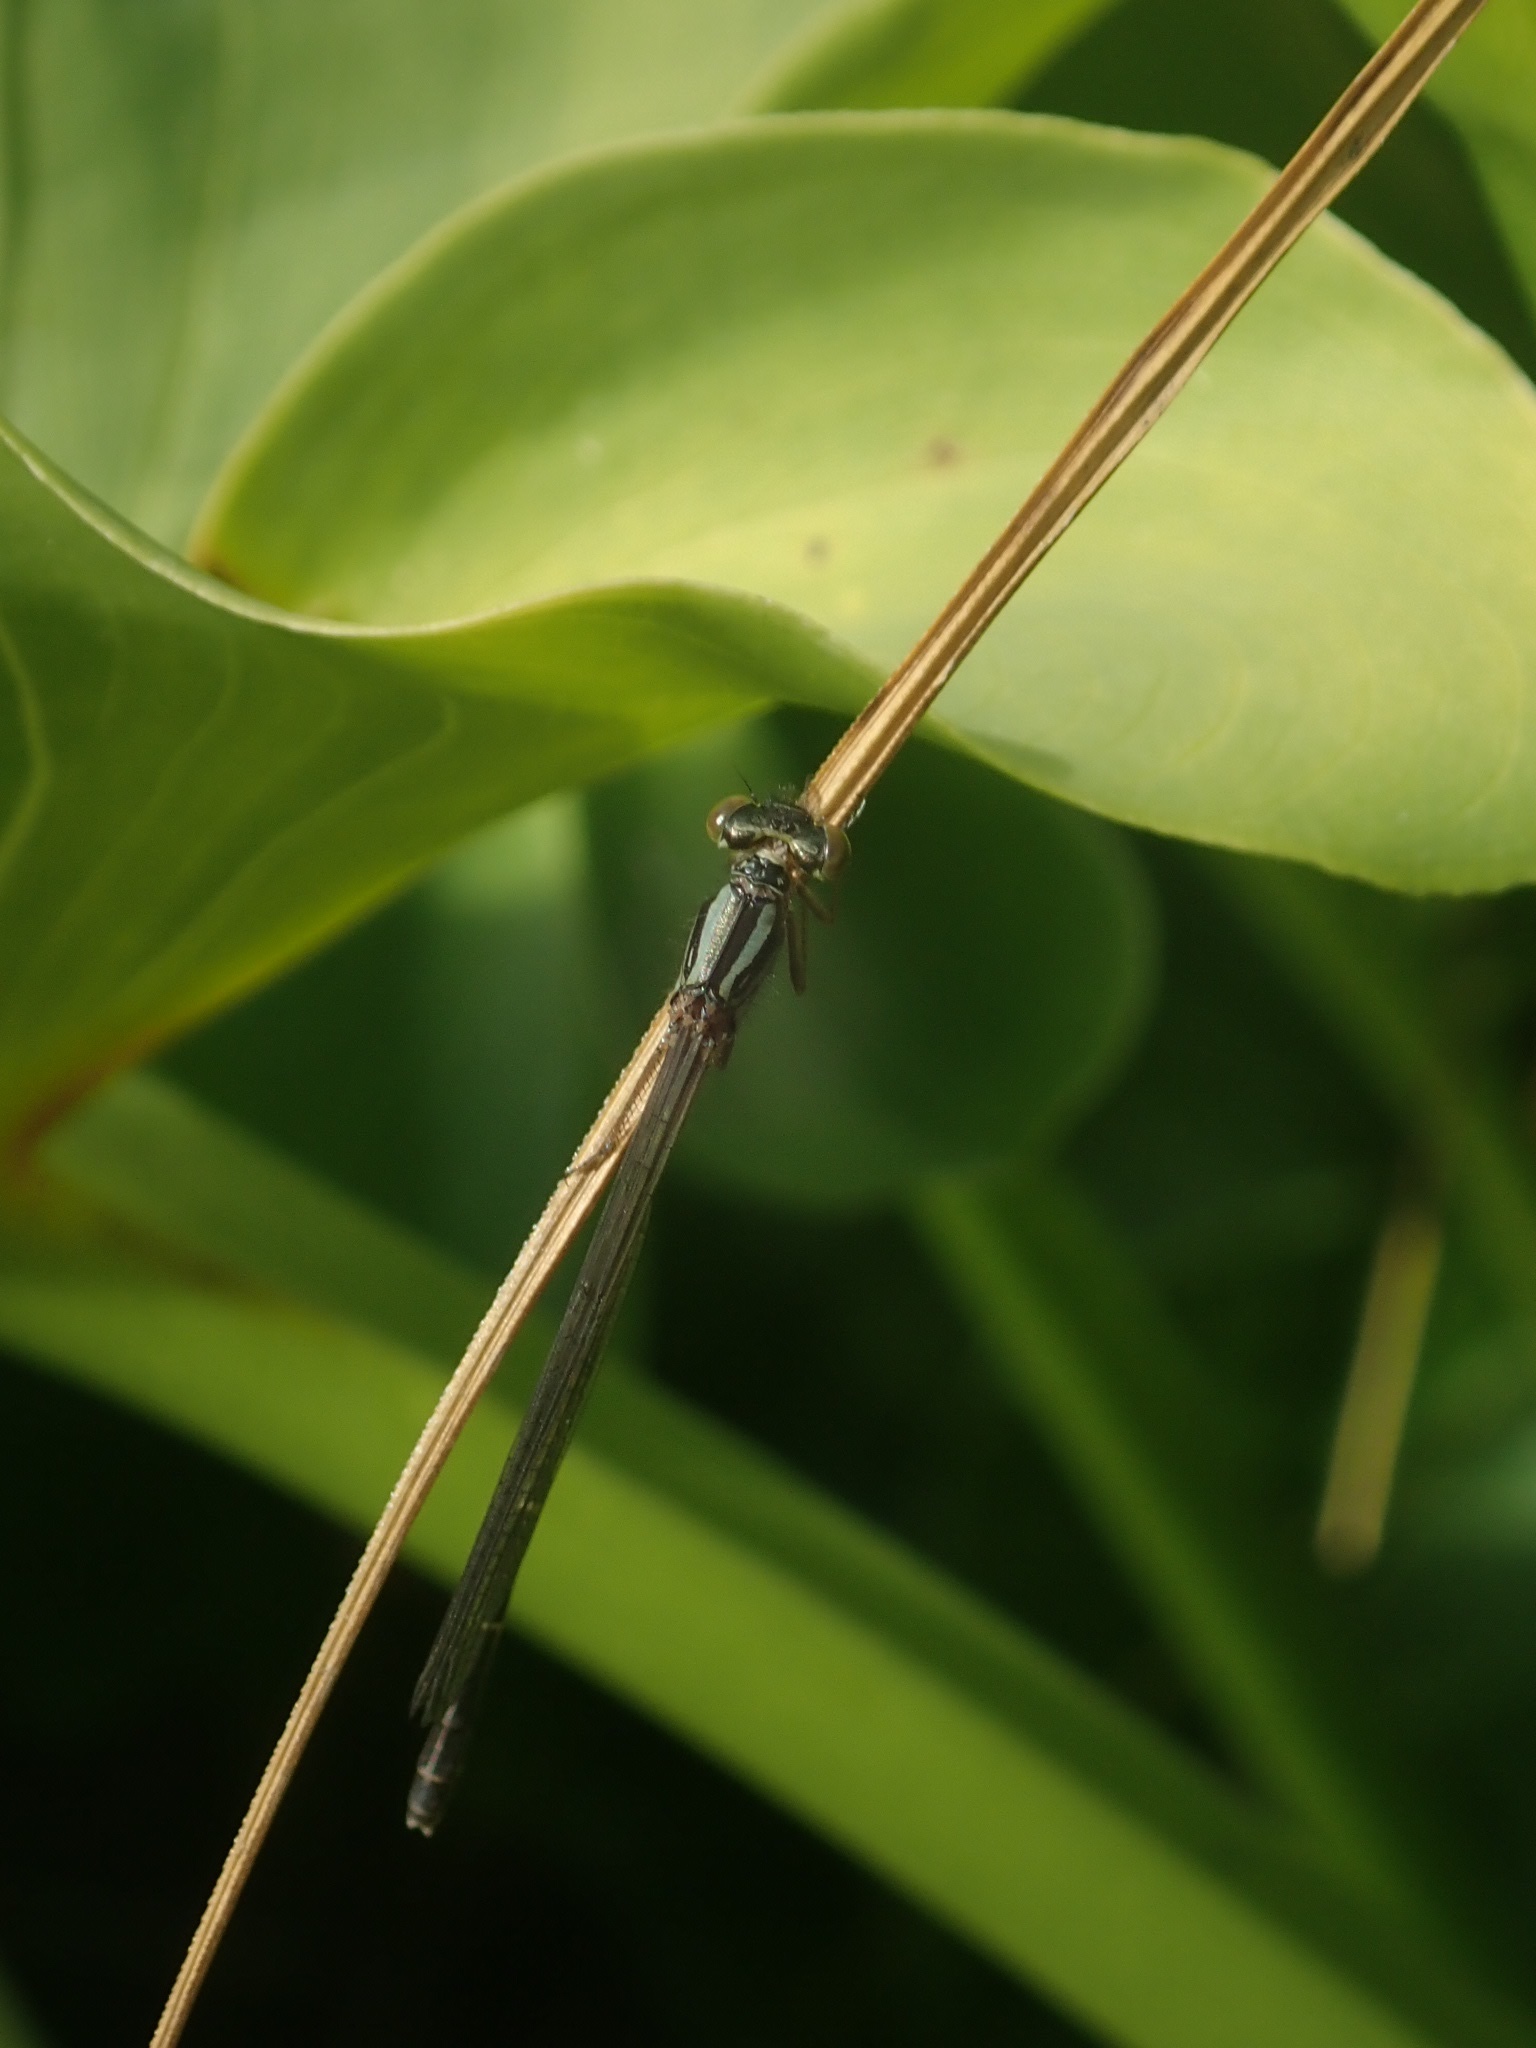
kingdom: Animalia
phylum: Arthropoda
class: Insecta
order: Odonata
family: Coenagrionidae
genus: Xanthocnemis
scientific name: Xanthocnemis zealandica
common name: Common redcoat damselfly
